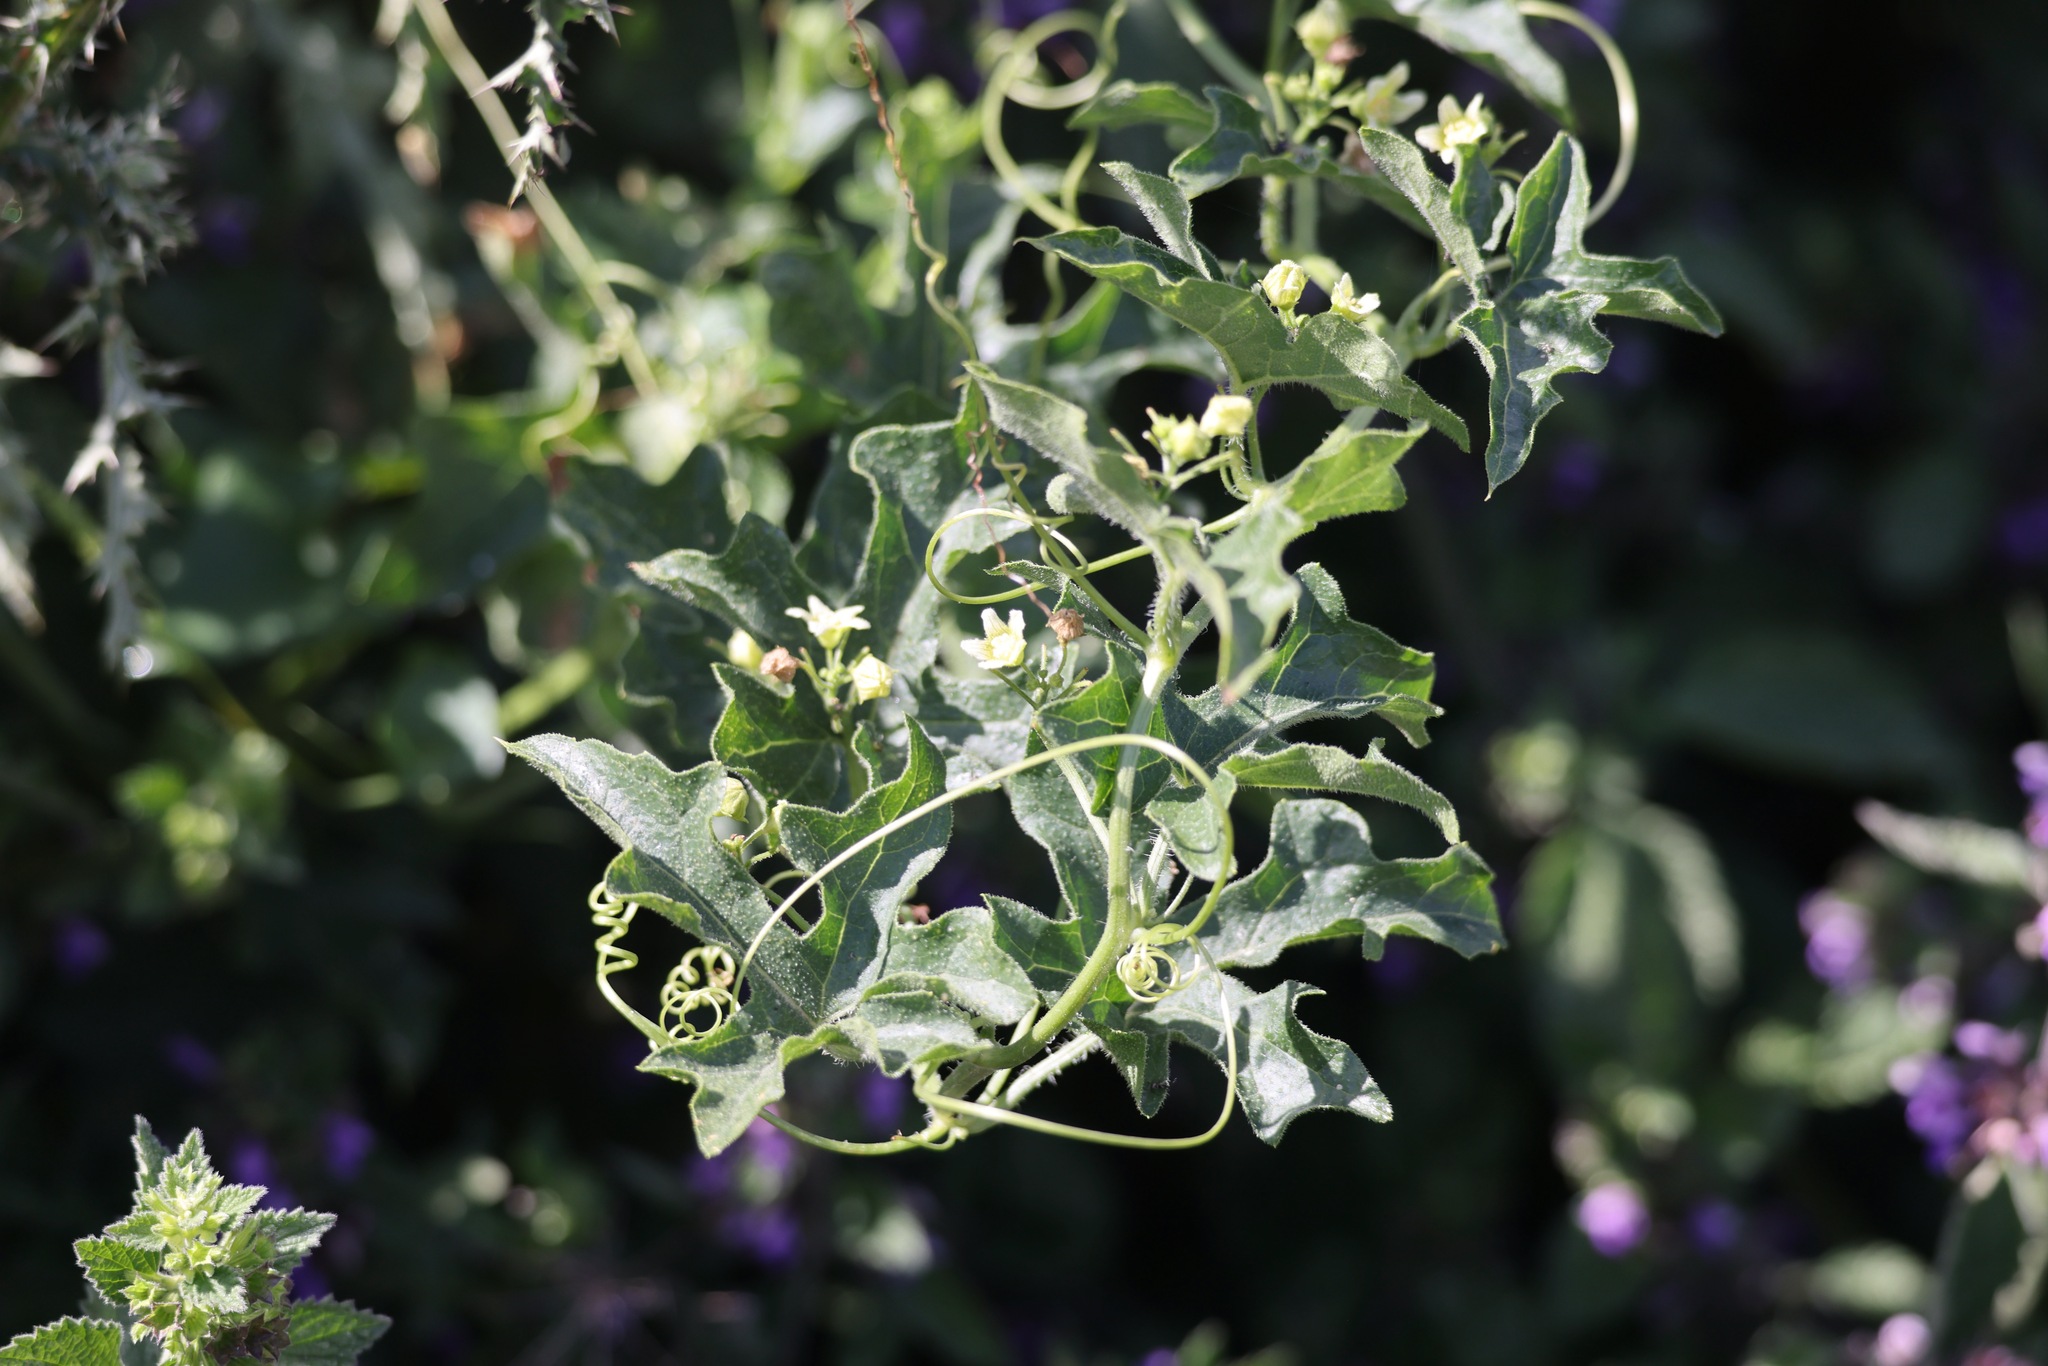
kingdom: Plantae
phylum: Tracheophyta
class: Magnoliopsida
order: Cucurbitales
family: Cucurbitaceae
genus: Bryonia
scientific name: Bryonia cretica
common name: Cretan bryony
